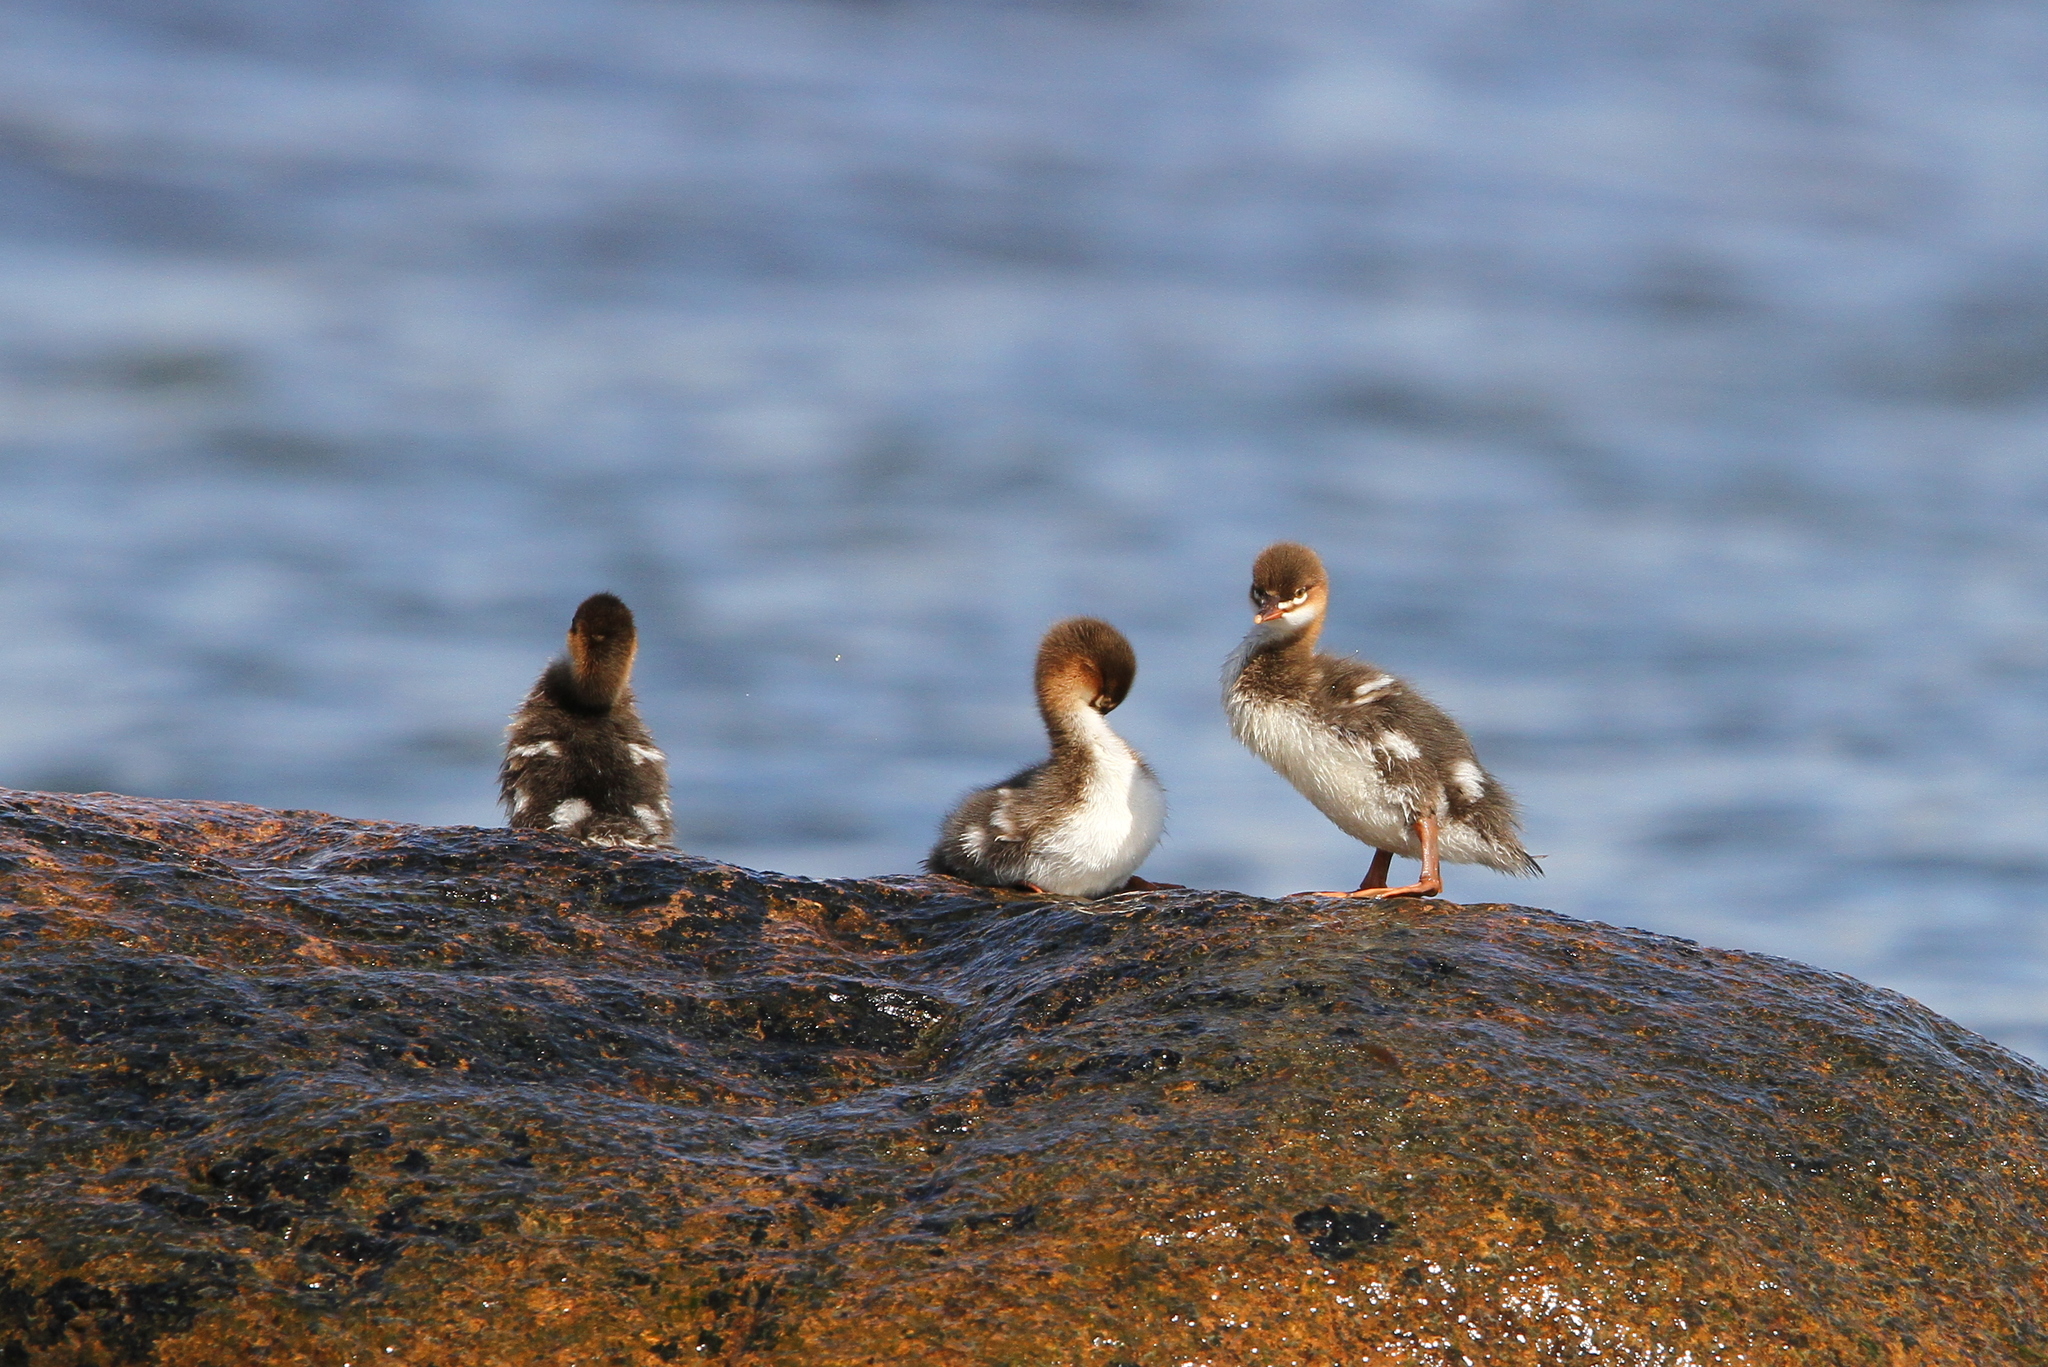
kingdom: Animalia
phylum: Chordata
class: Aves
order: Anseriformes
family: Anatidae
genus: Mergus
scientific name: Mergus serrator
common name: Red-breasted merganser
